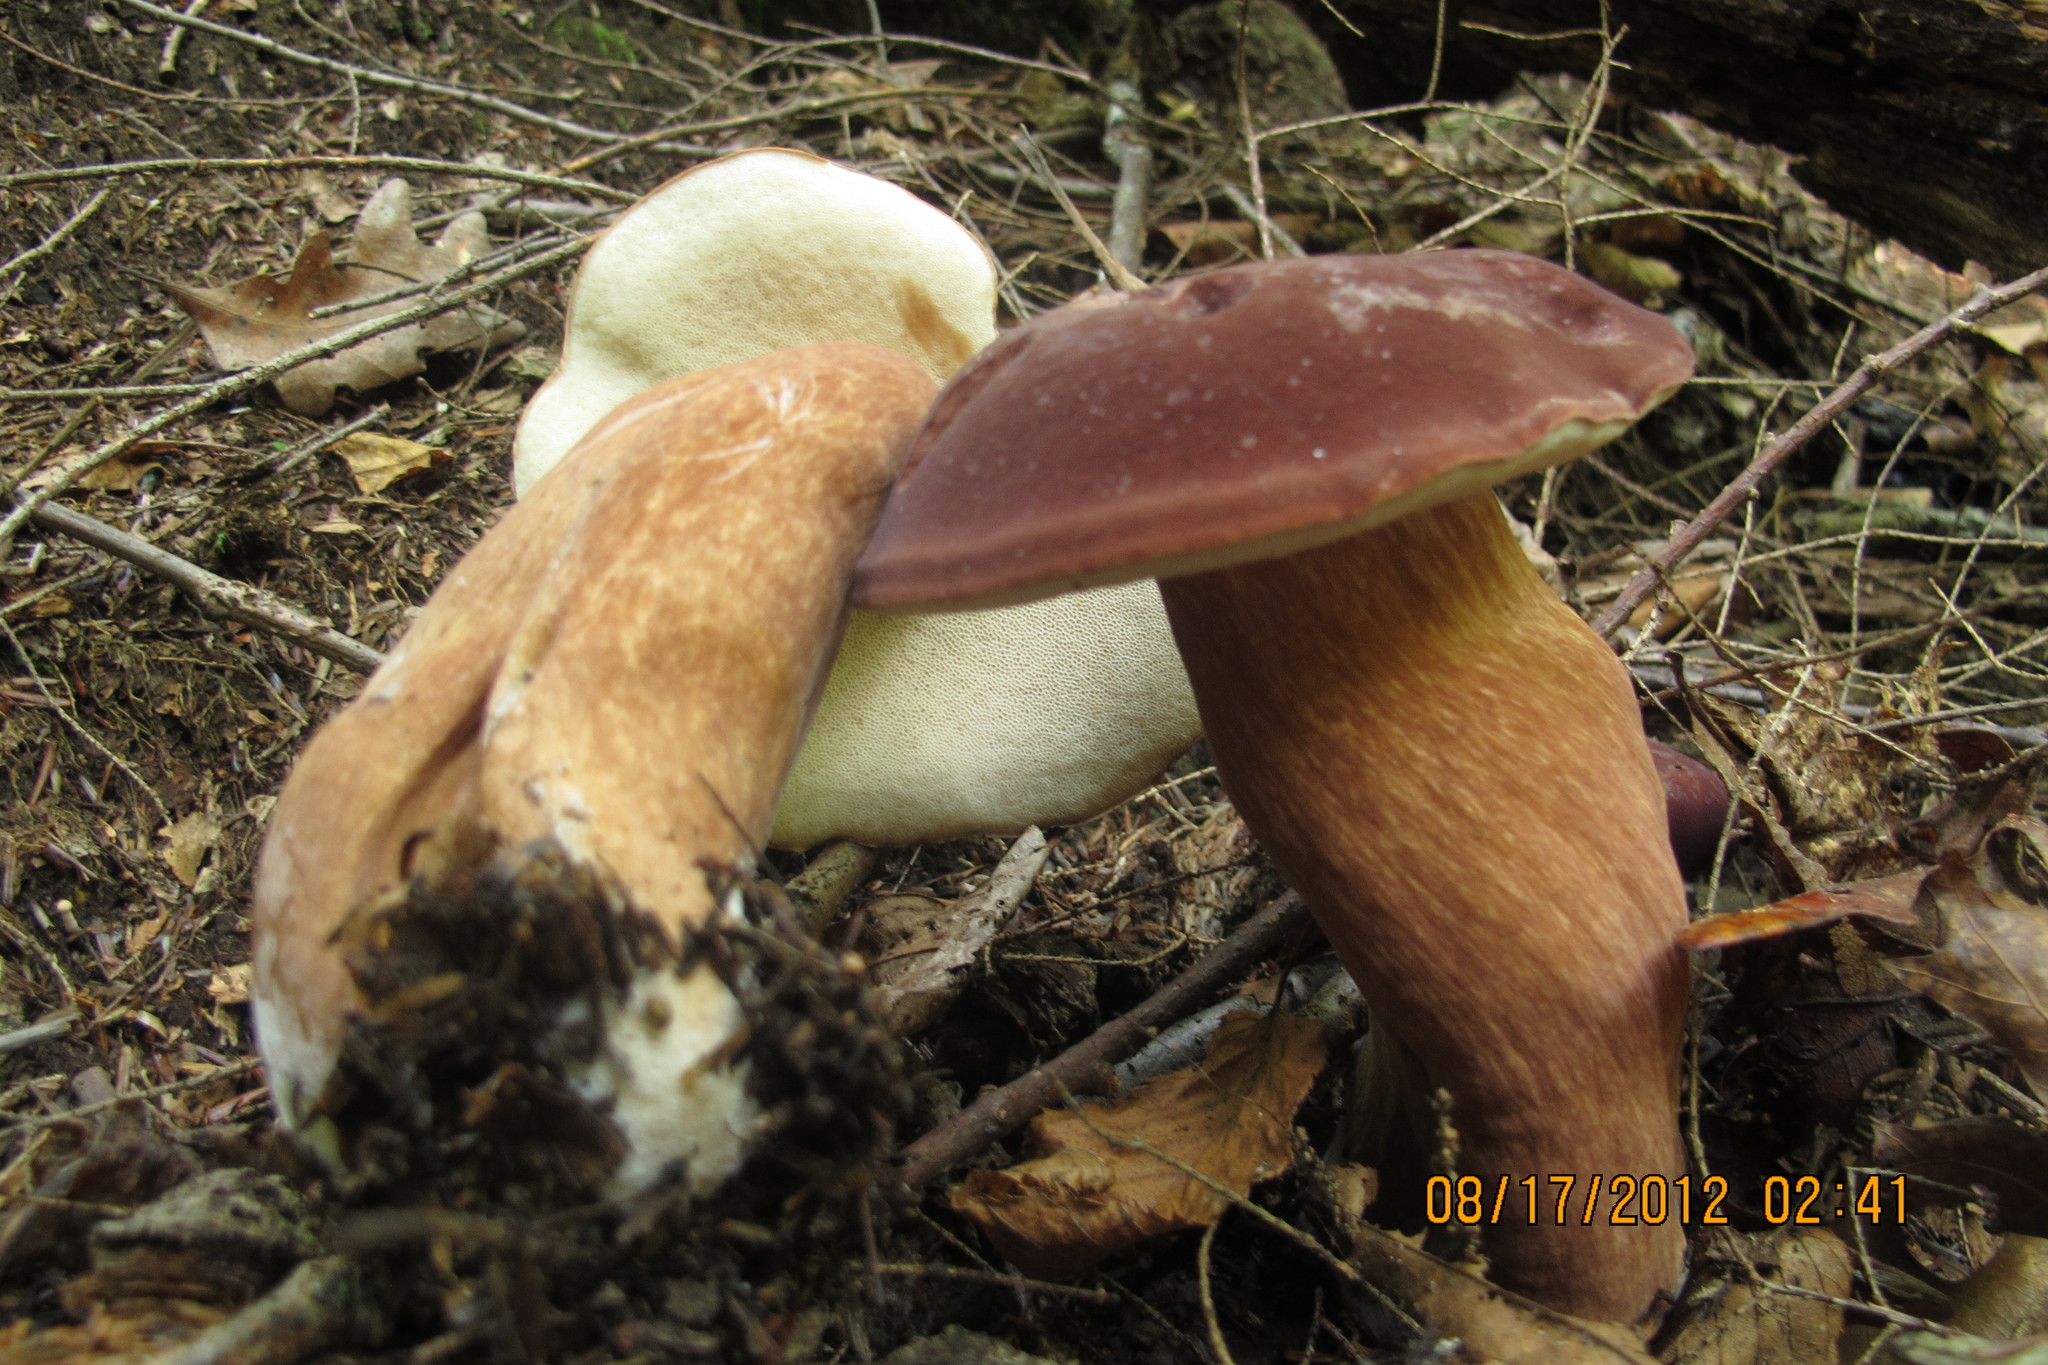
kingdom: Fungi
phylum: Basidiomycota
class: Agaricomycetes
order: Boletales
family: Boletaceae
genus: Tylopilus
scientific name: Tylopilus badiceps
